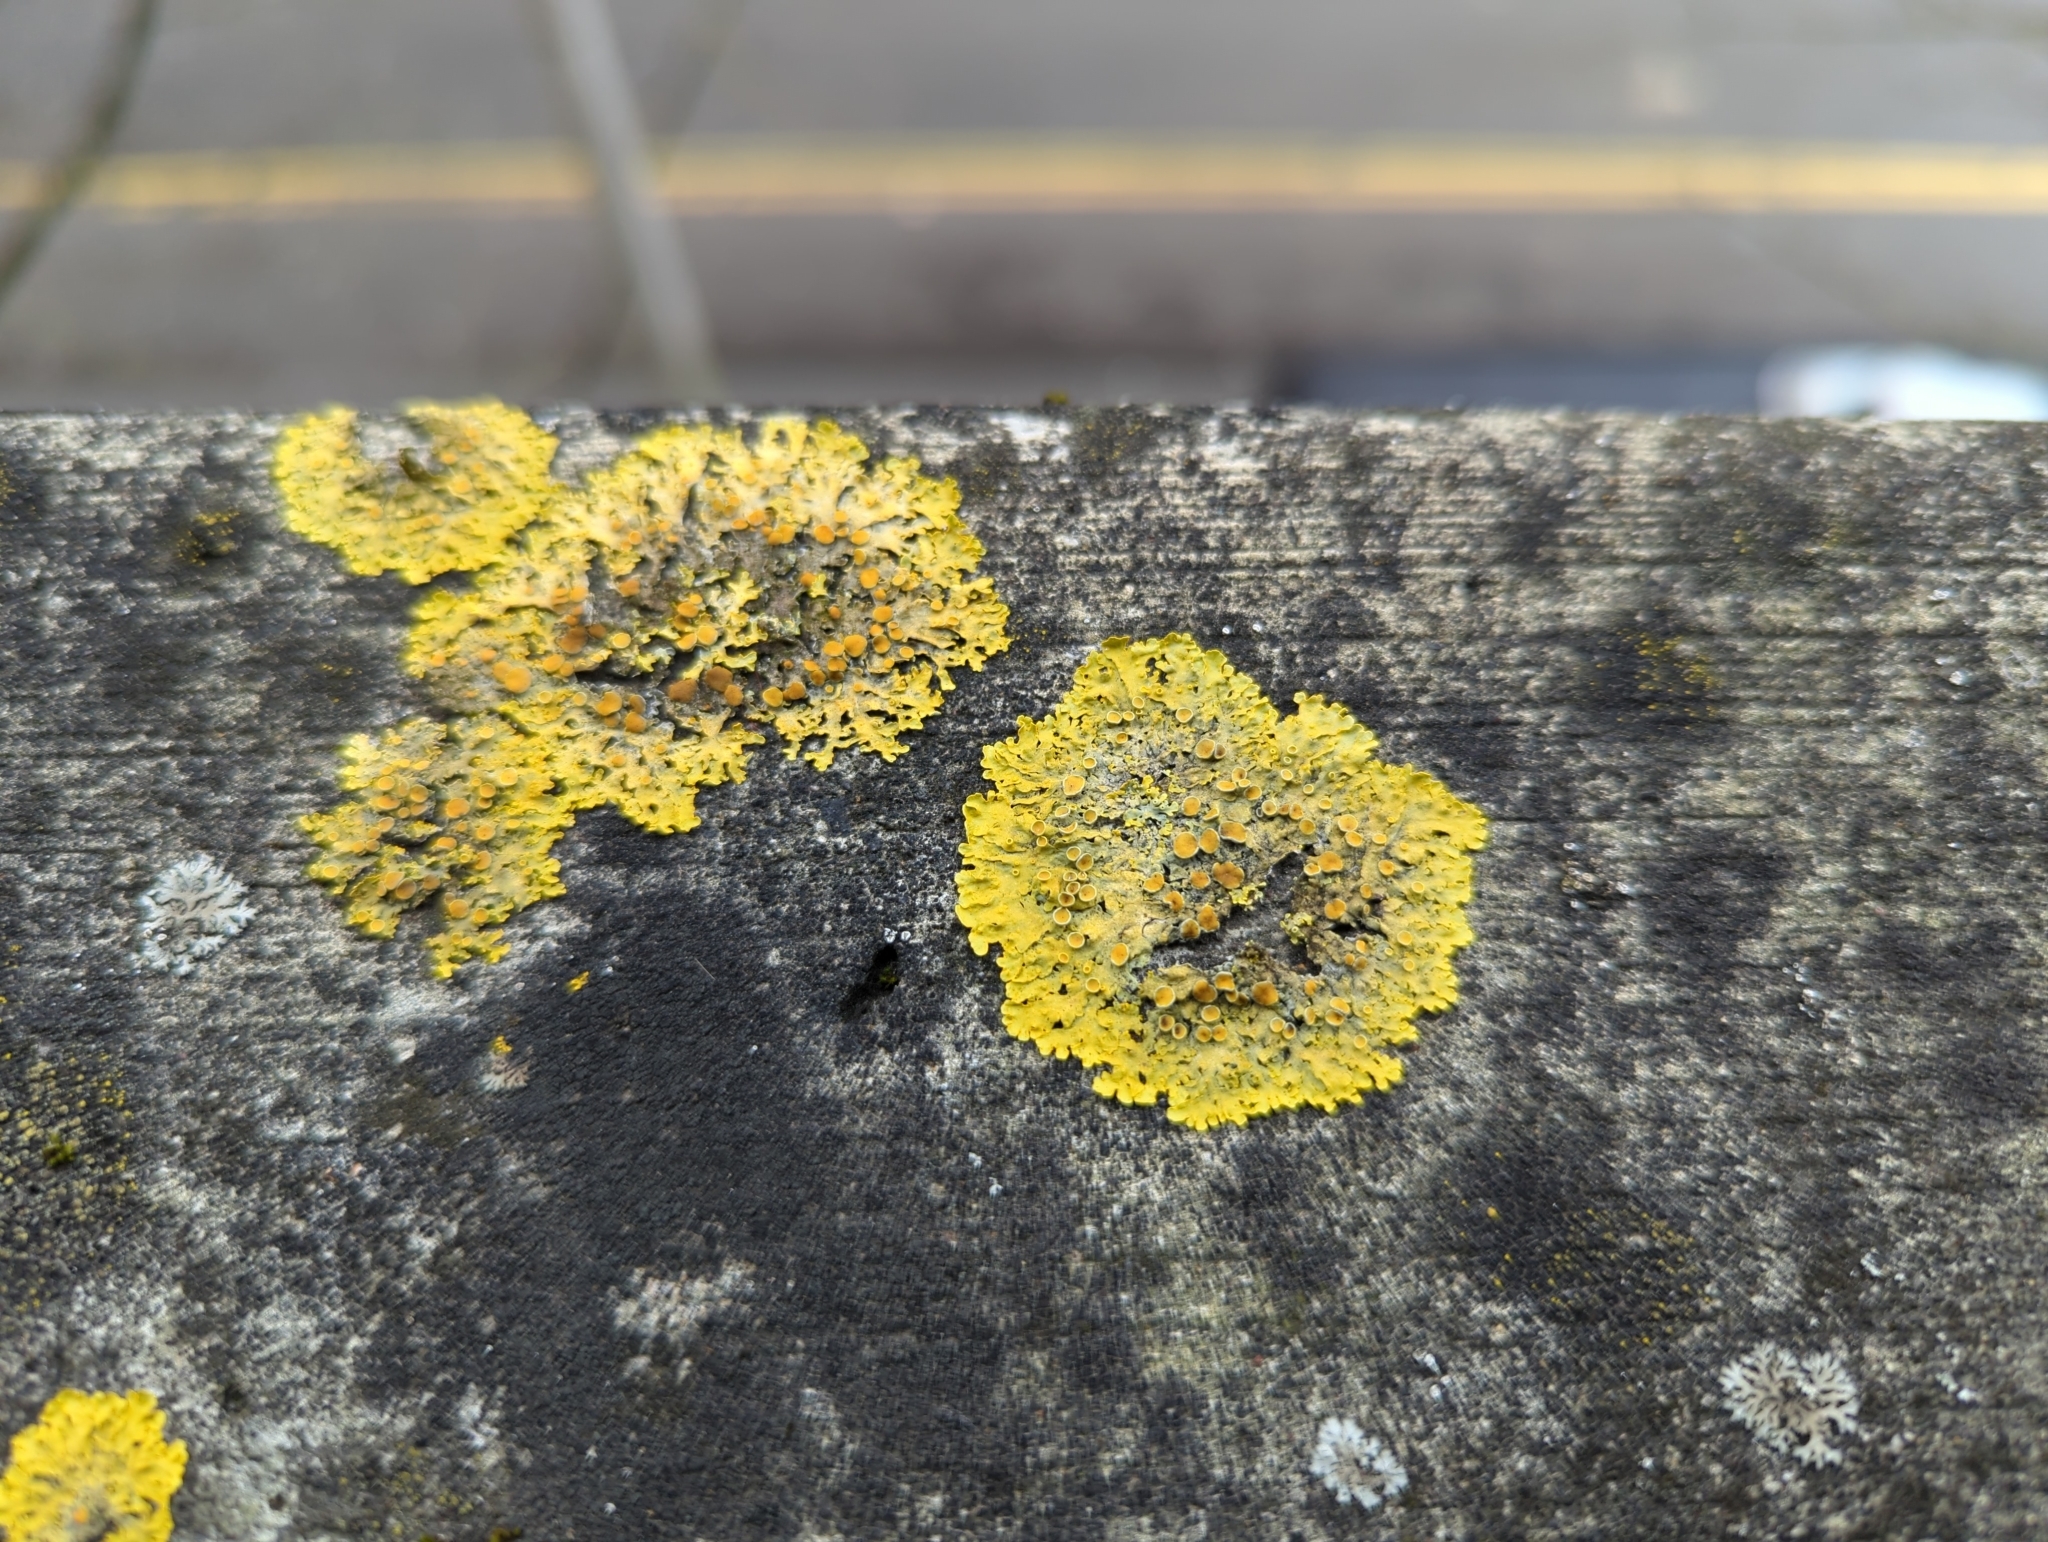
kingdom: Fungi
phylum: Ascomycota
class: Lecanoromycetes
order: Teloschistales
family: Teloschistaceae
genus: Xanthoria
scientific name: Xanthoria parietina
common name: Common orange lichen
